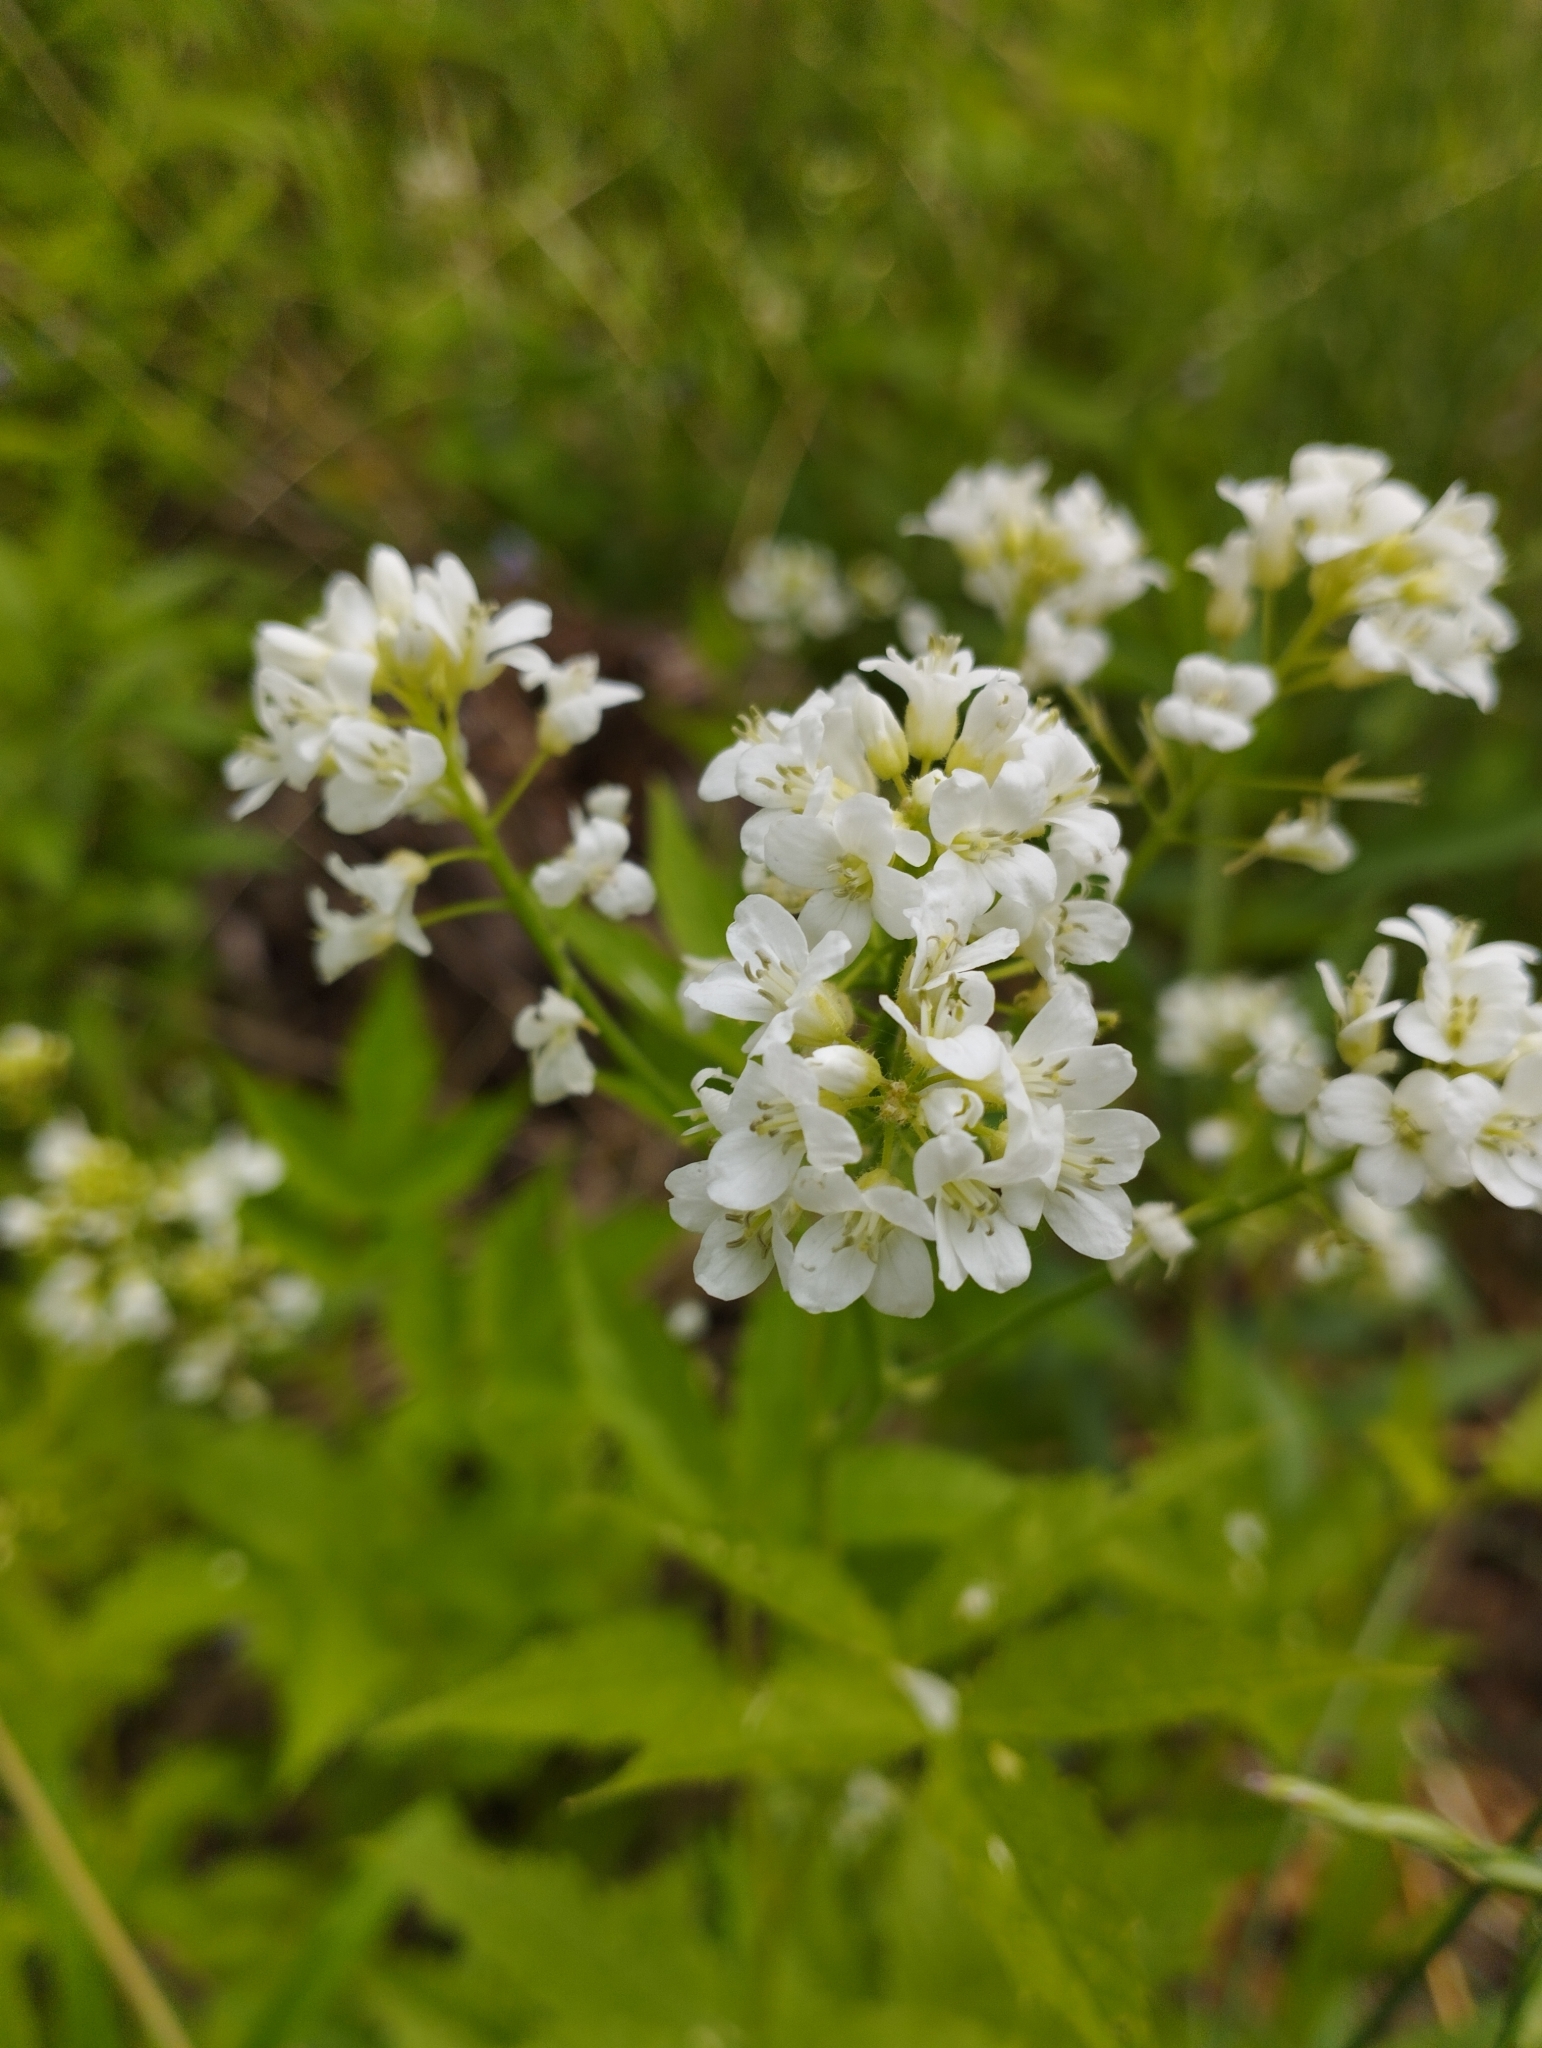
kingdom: Plantae
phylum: Tracheophyta
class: Magnoliopsida
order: Brassicales
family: Brassicaceae
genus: Cardamine
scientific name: Cardamine leucantha
